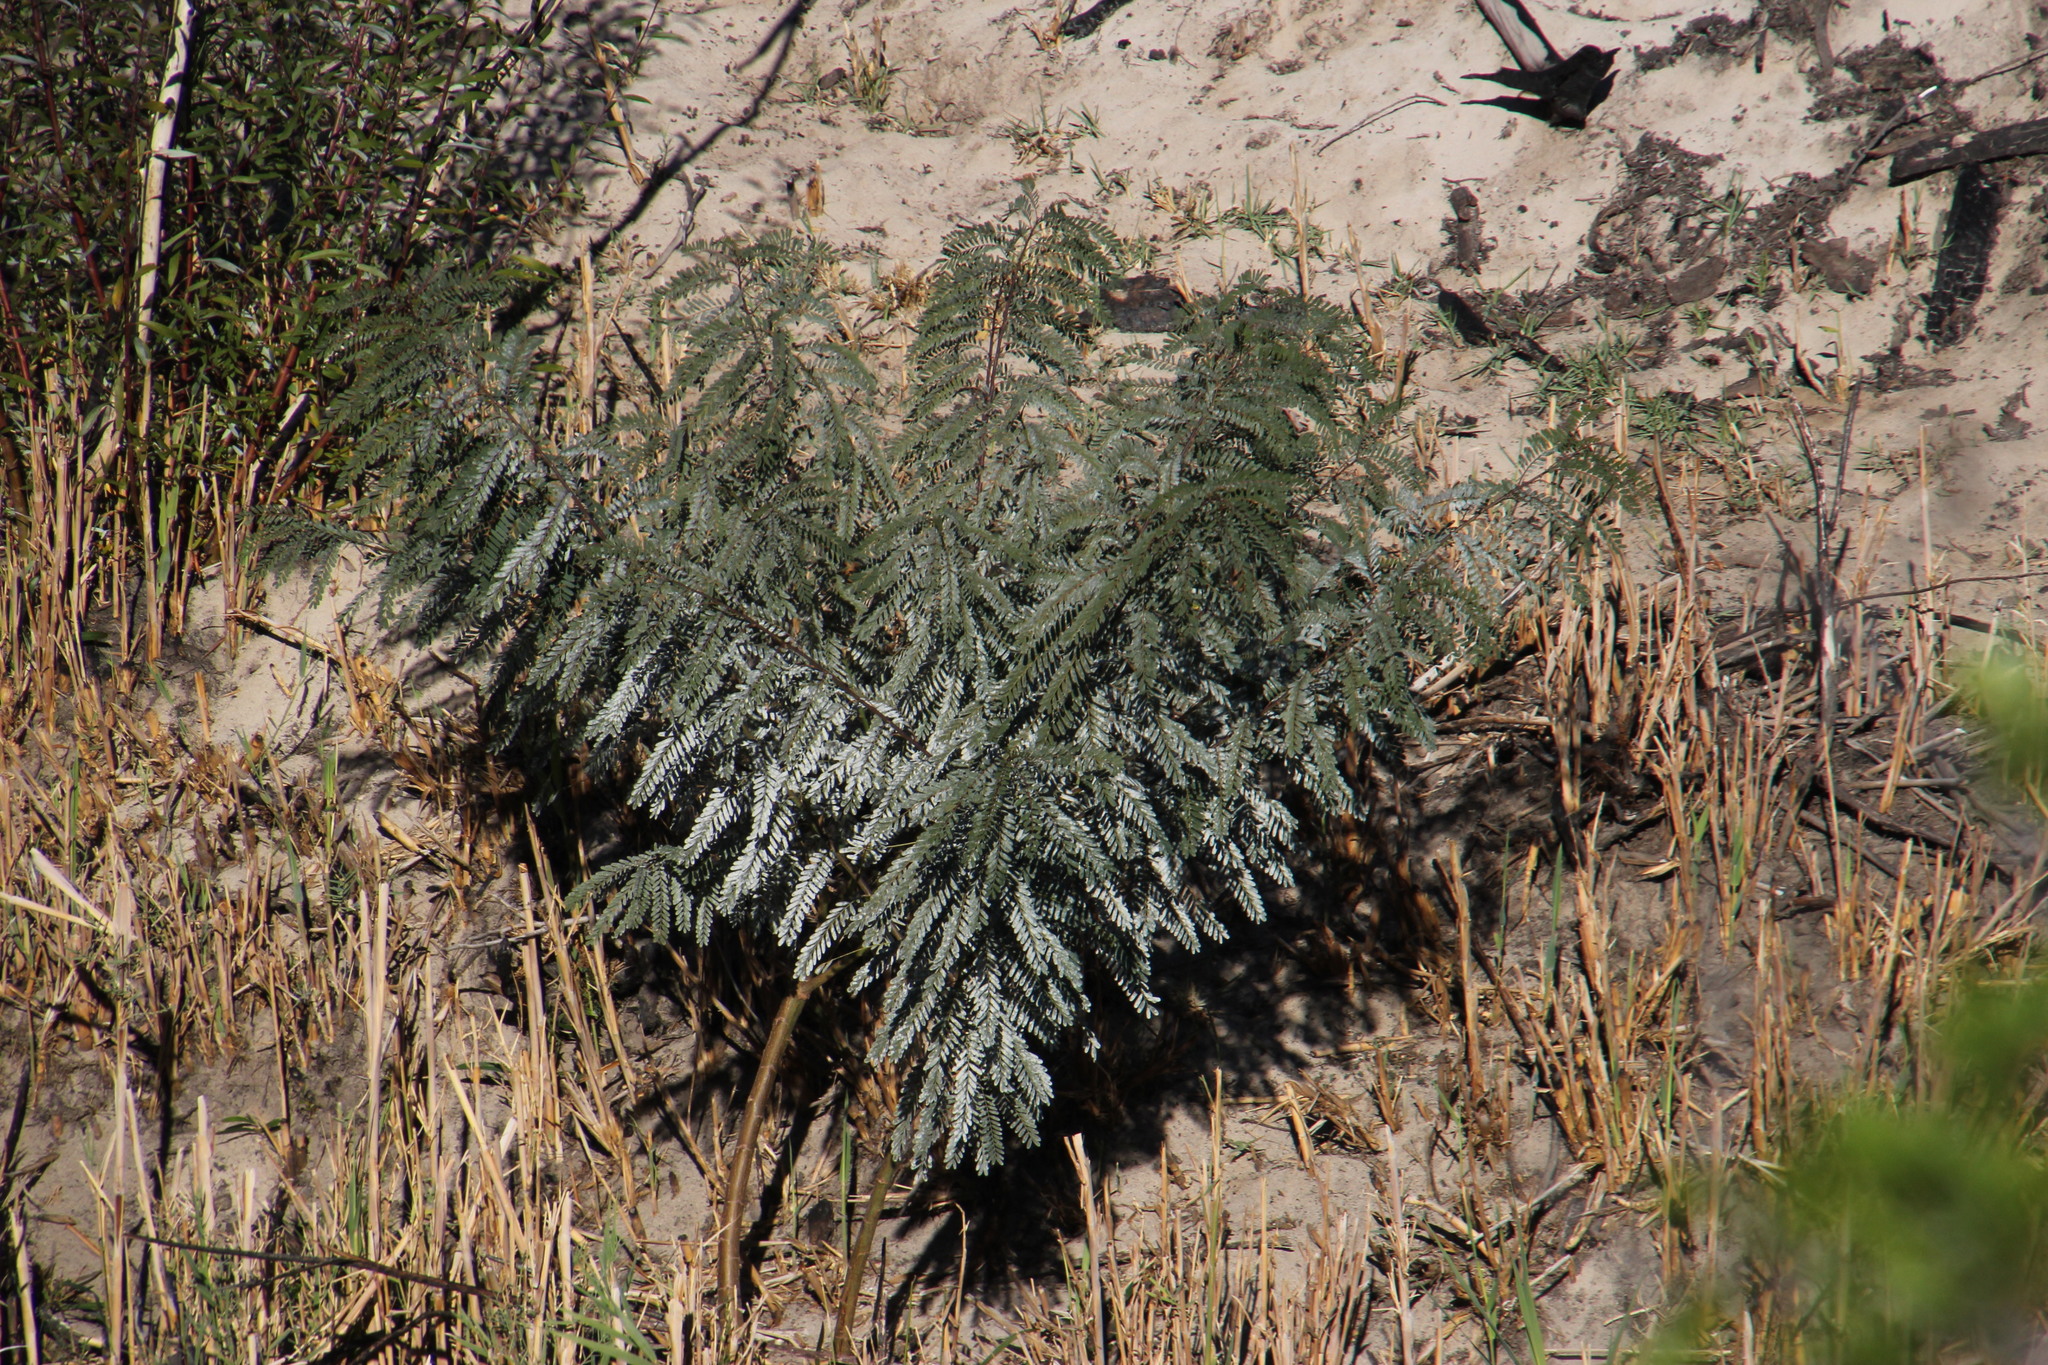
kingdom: Plantae
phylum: Tracheophyta
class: Magnoliopsida
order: Fabales
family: Fabaceae
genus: Sesbania
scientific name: Sesbania punicea
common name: Rattlebox
